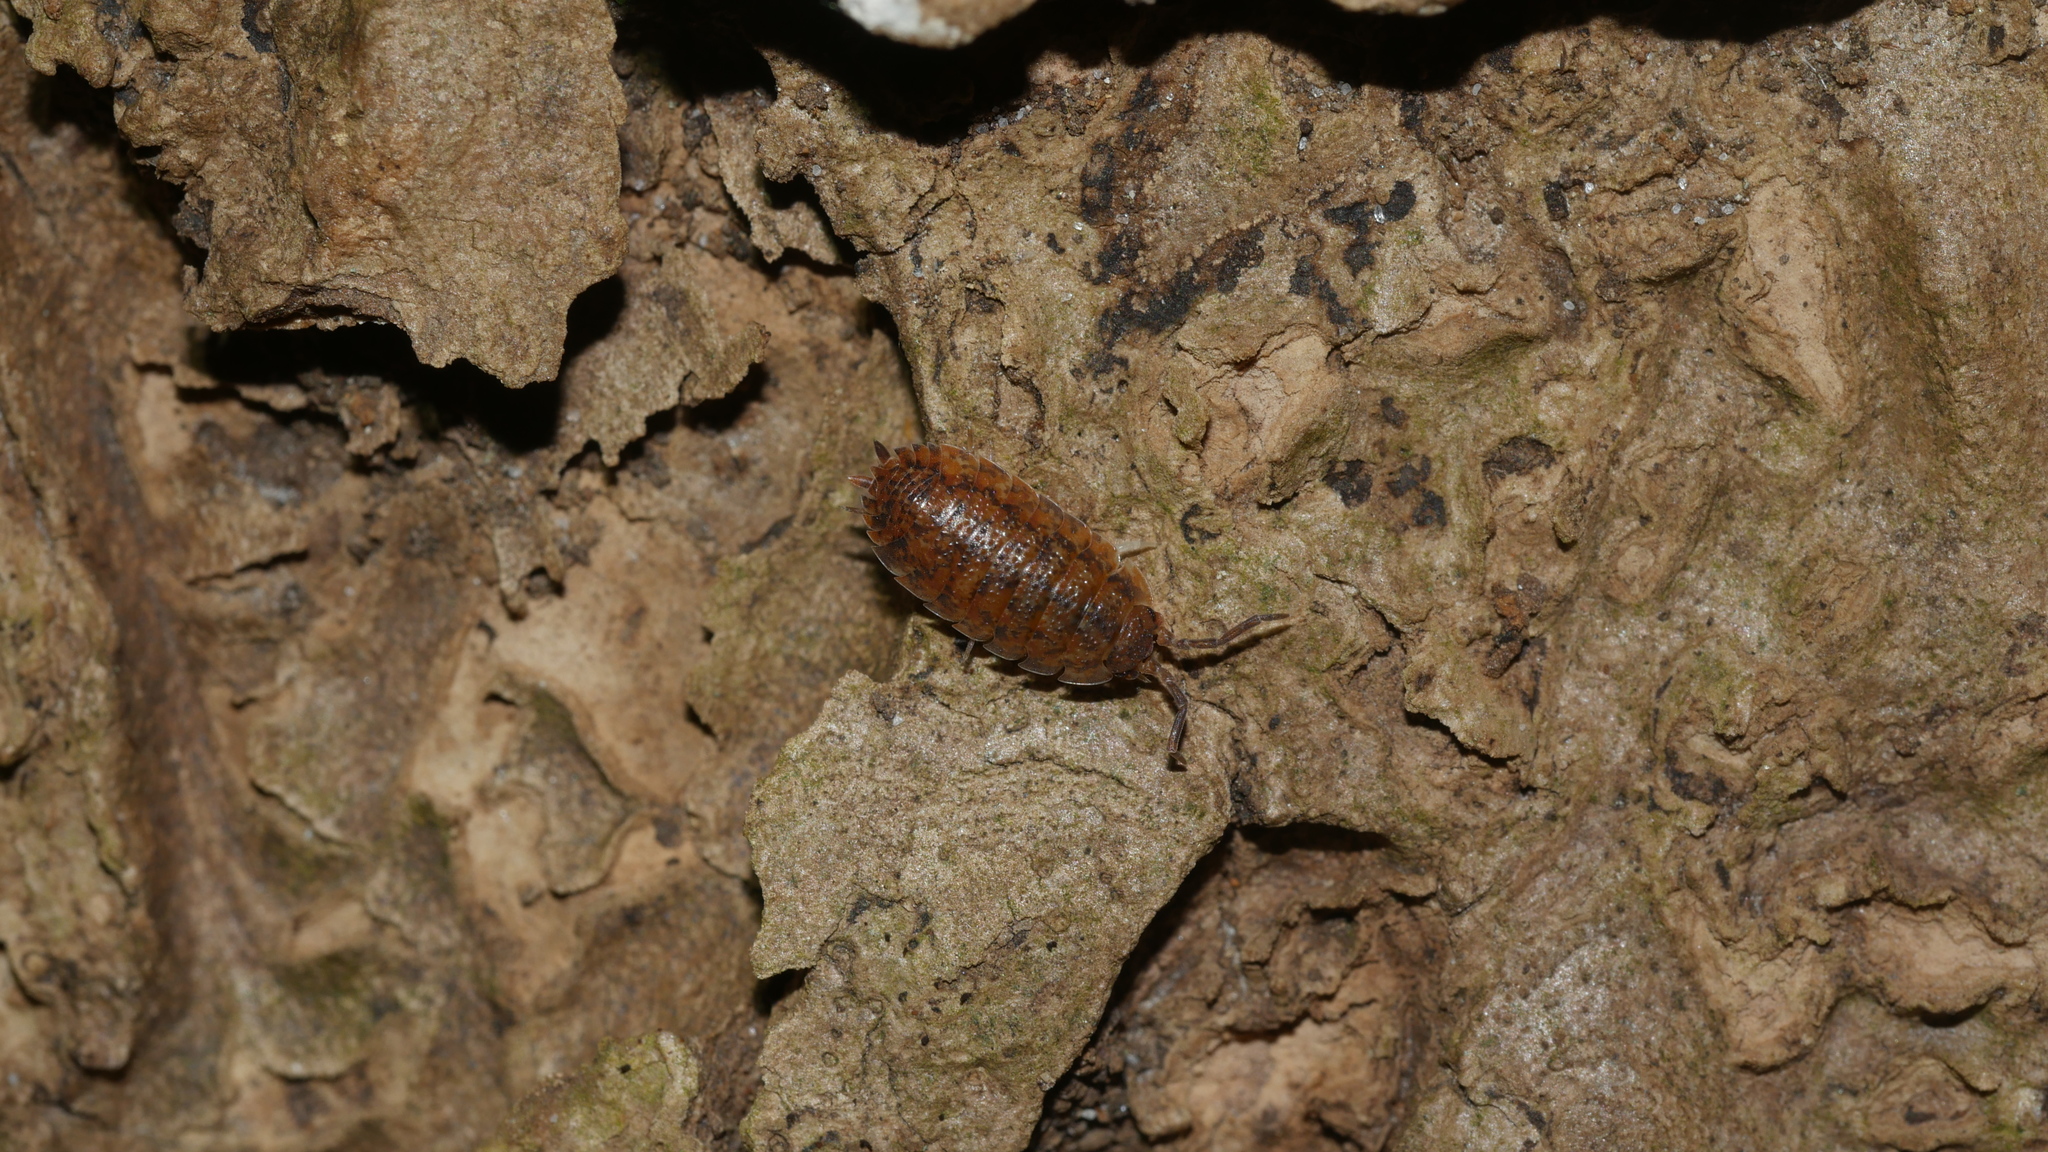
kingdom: Animalia
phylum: Arthropoda
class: Malacostraca
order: Isopoda
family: Porcellionidae
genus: Porcellio
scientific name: Porcellio scaber
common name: Common rough woodlouse
